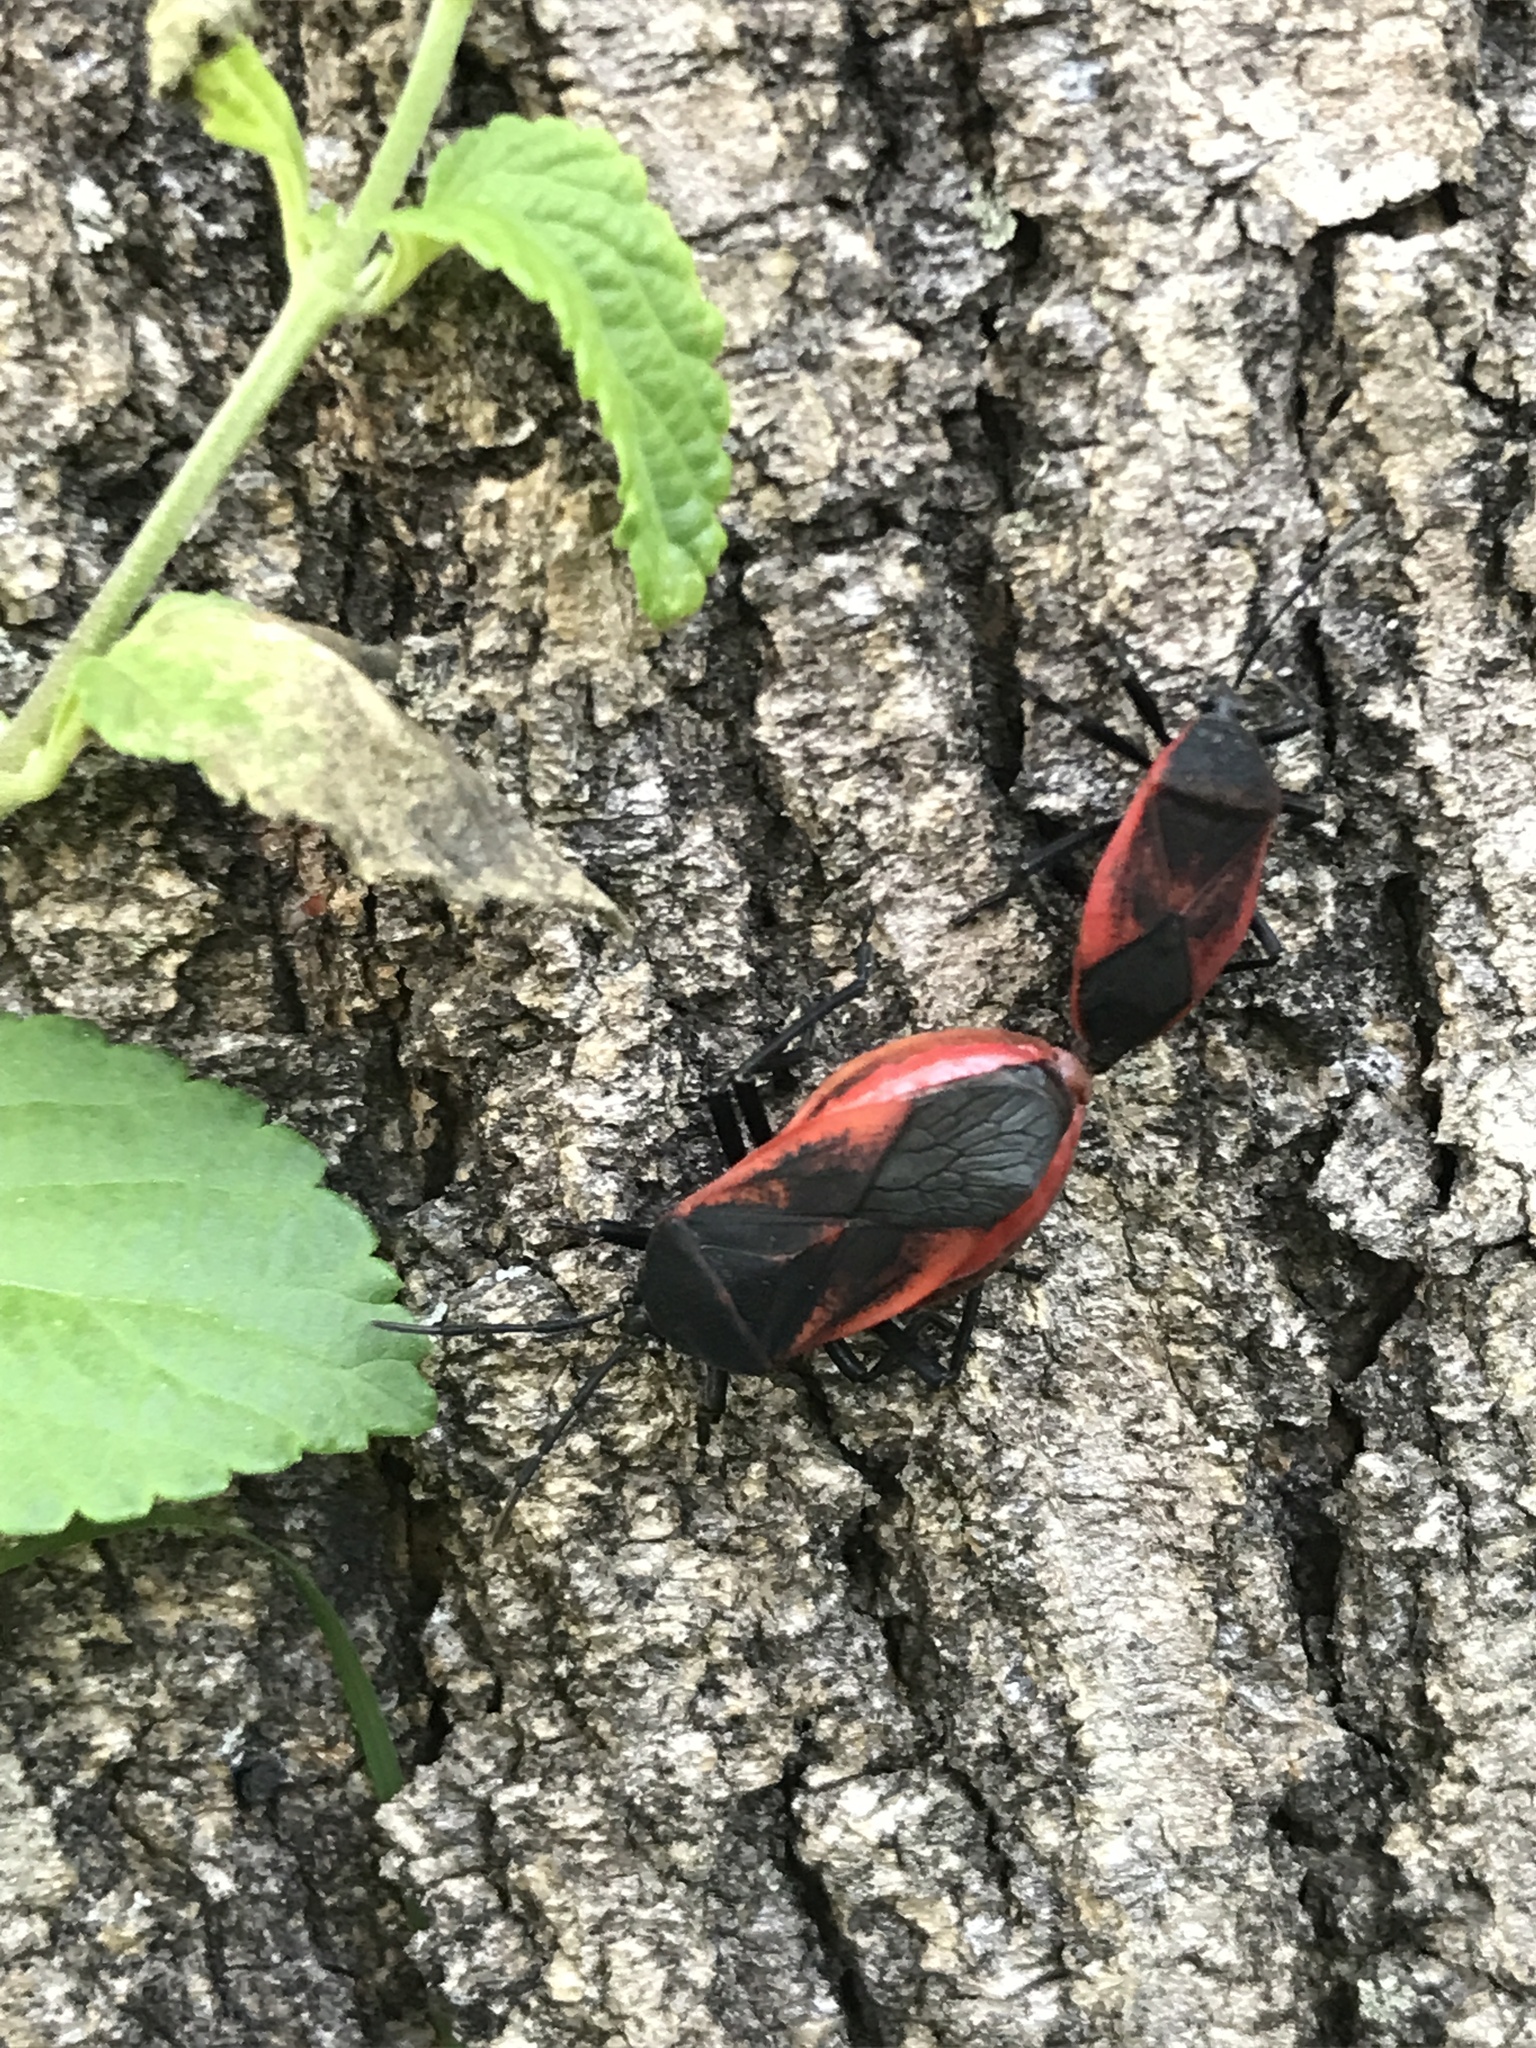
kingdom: Animalia
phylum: Arthropoda
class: Insecta
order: Hemiptera
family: Largidae
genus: Largus
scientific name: Largus rufipennis
